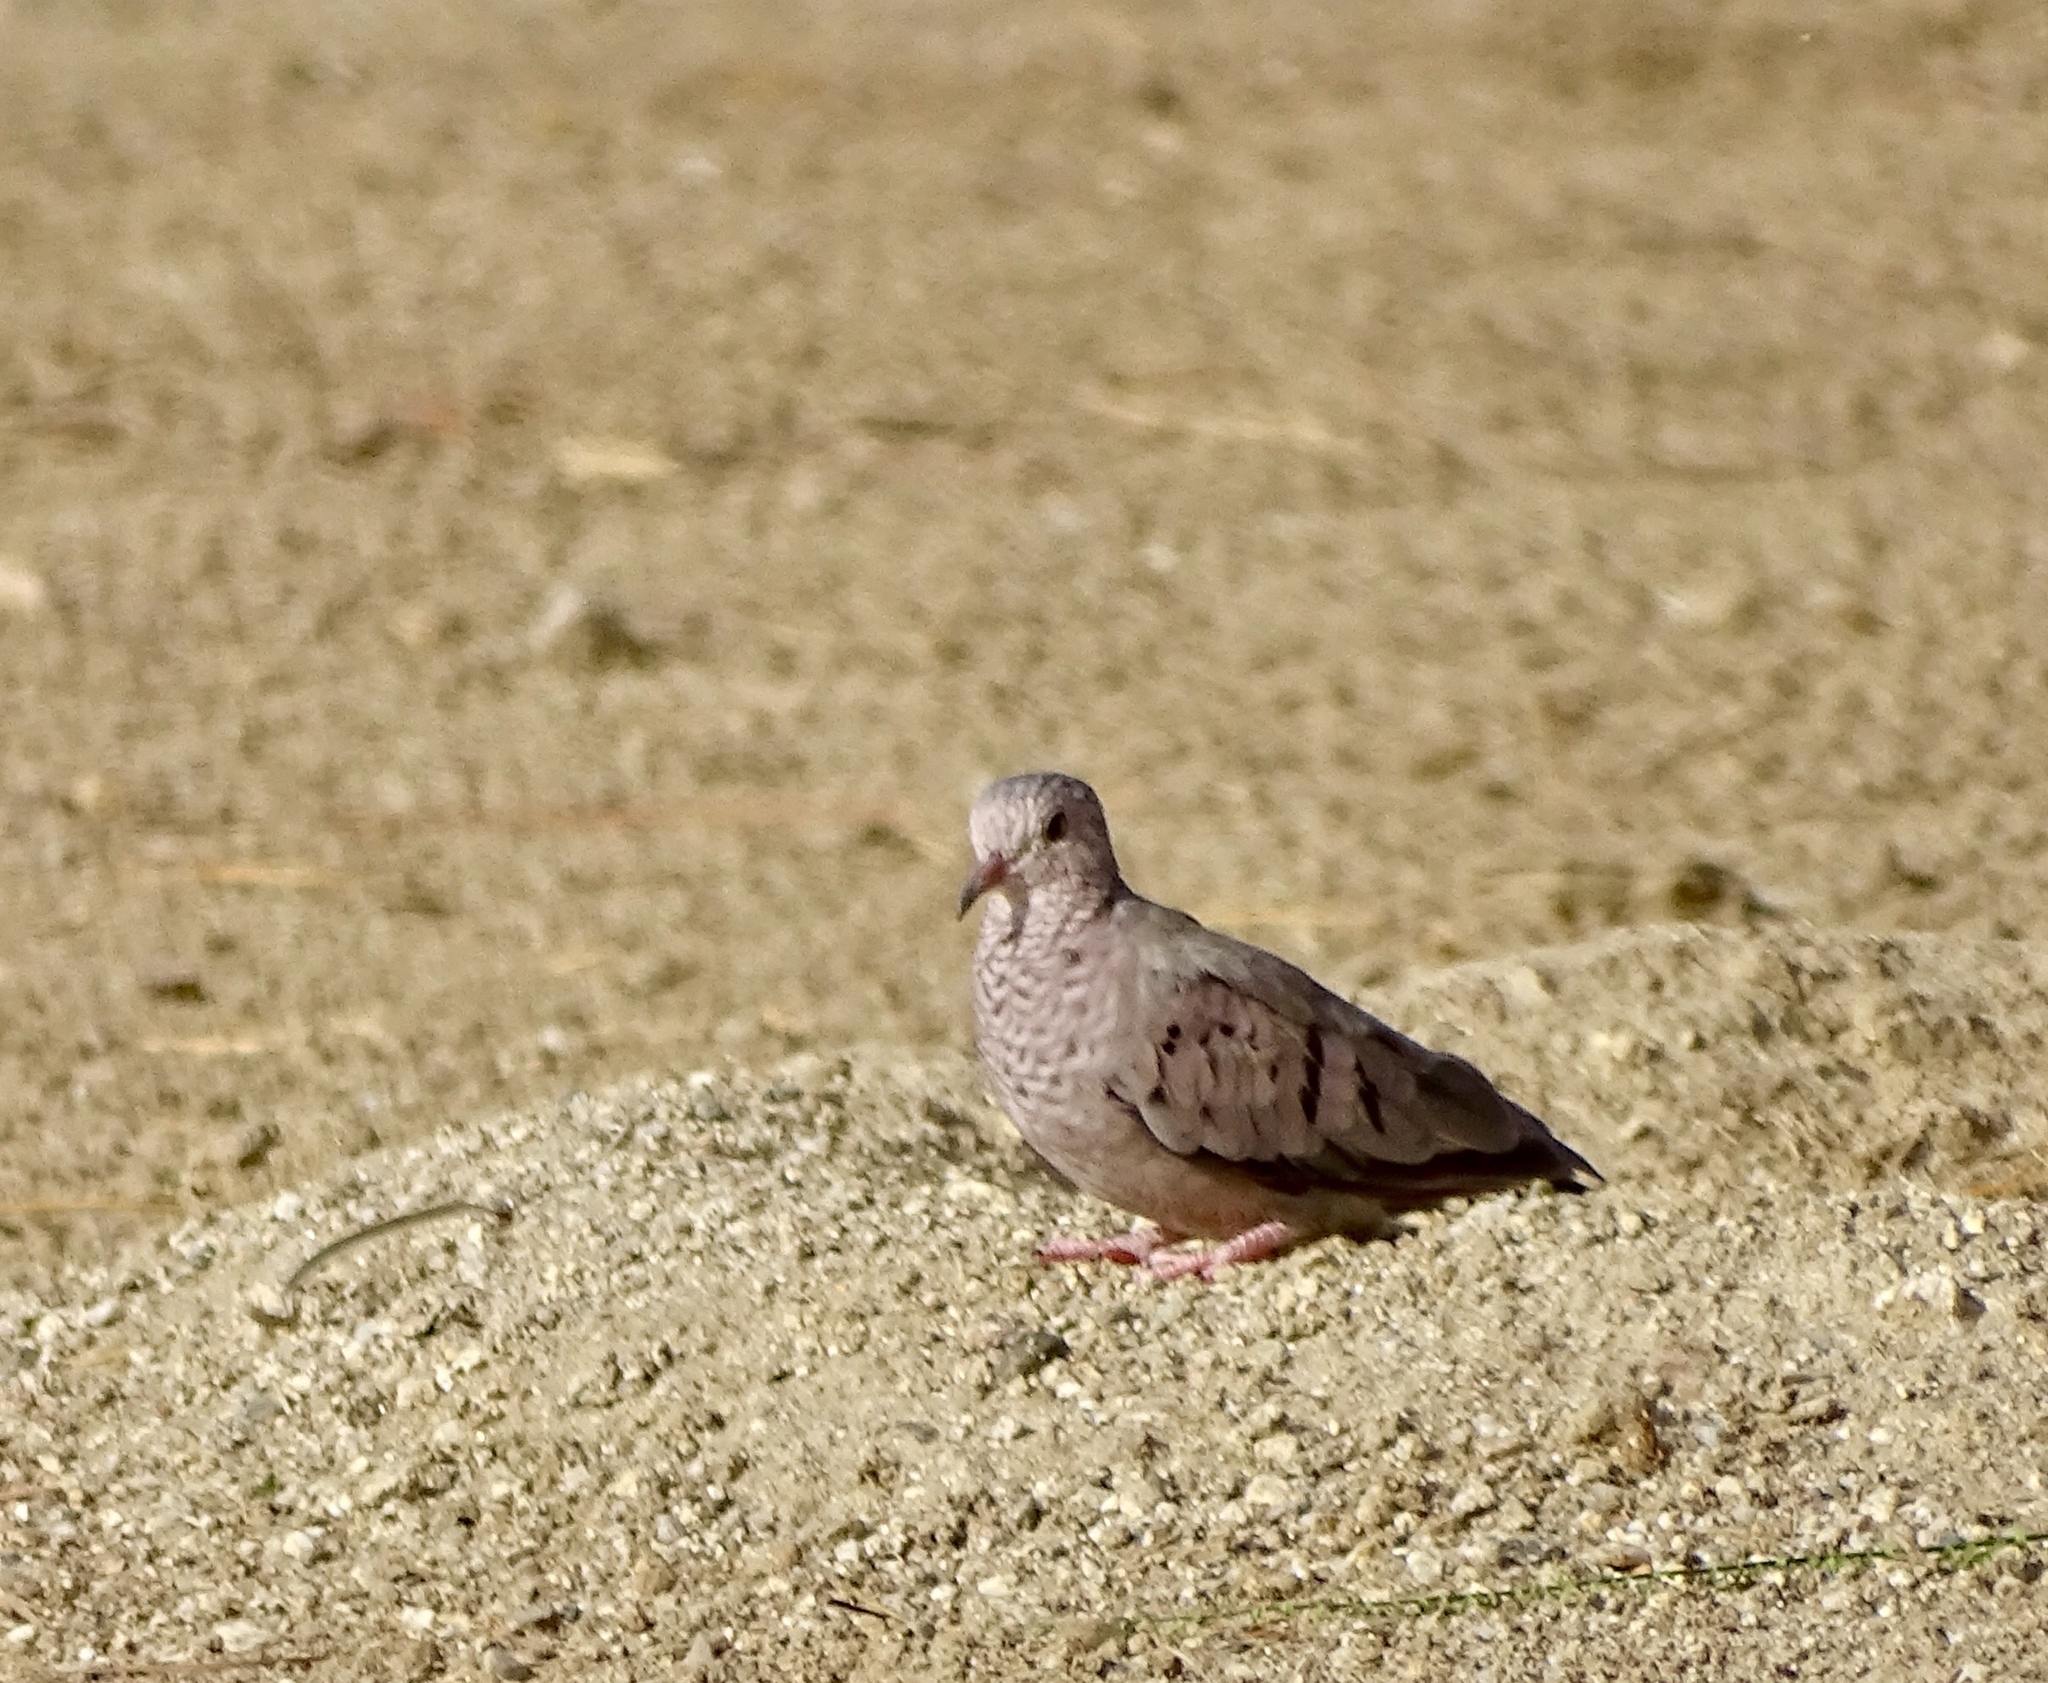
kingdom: Animalia
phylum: Chordata
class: Aves
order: Columbiformes
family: Columbidae
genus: Columbina
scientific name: Columbina passerina
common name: Common ground-dove
